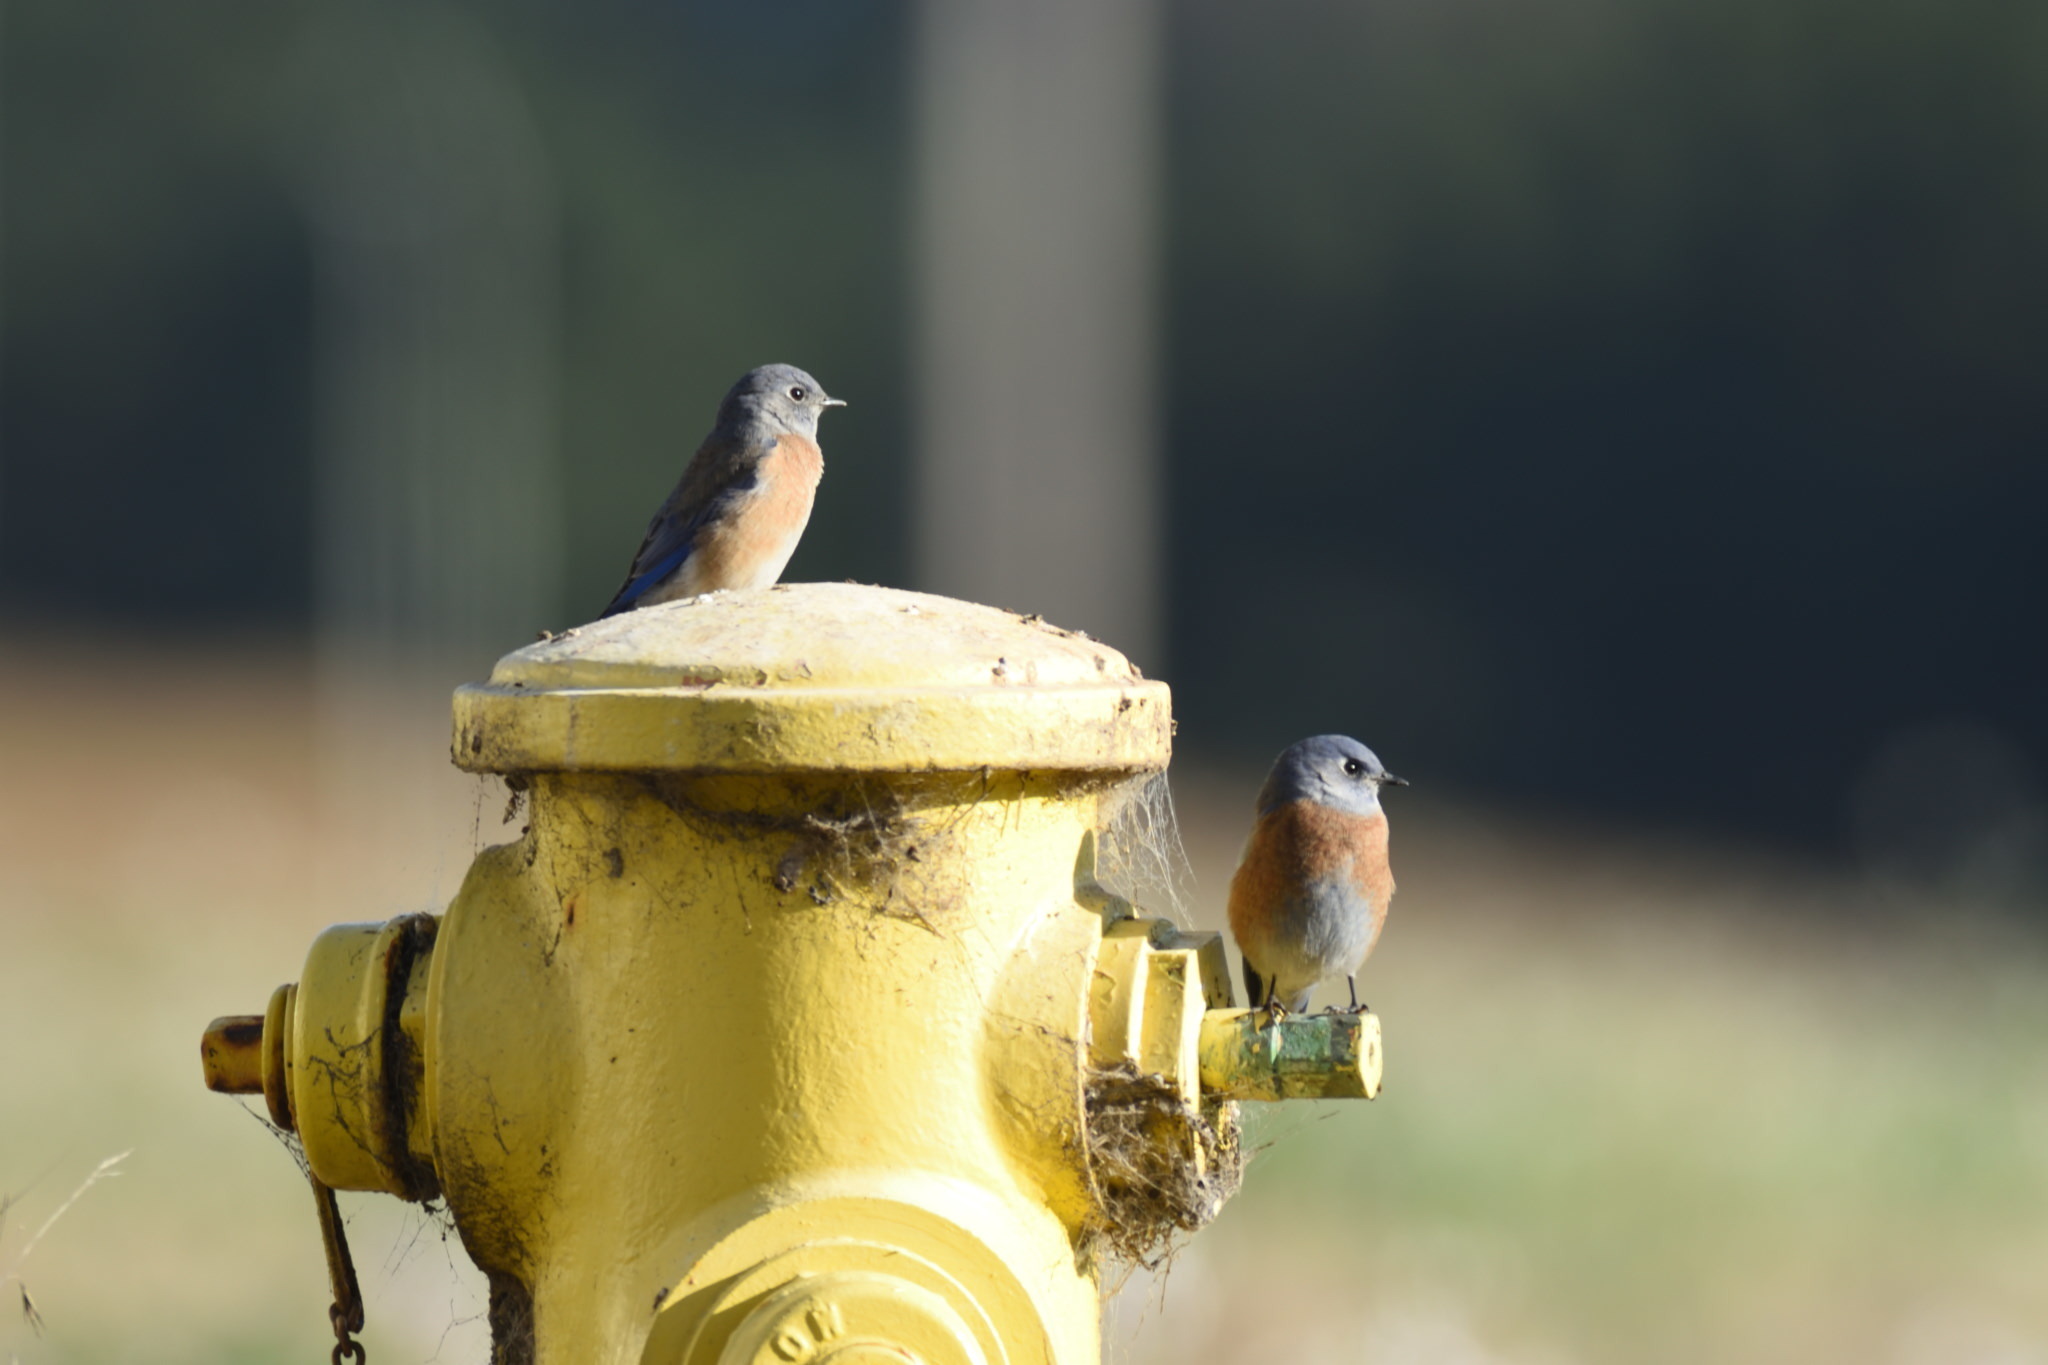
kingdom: Animalia
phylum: Chordata
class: Aves
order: Passeriformes
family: Turdidae
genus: Sialia
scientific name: Sialia mexicana
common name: Western bluebird
